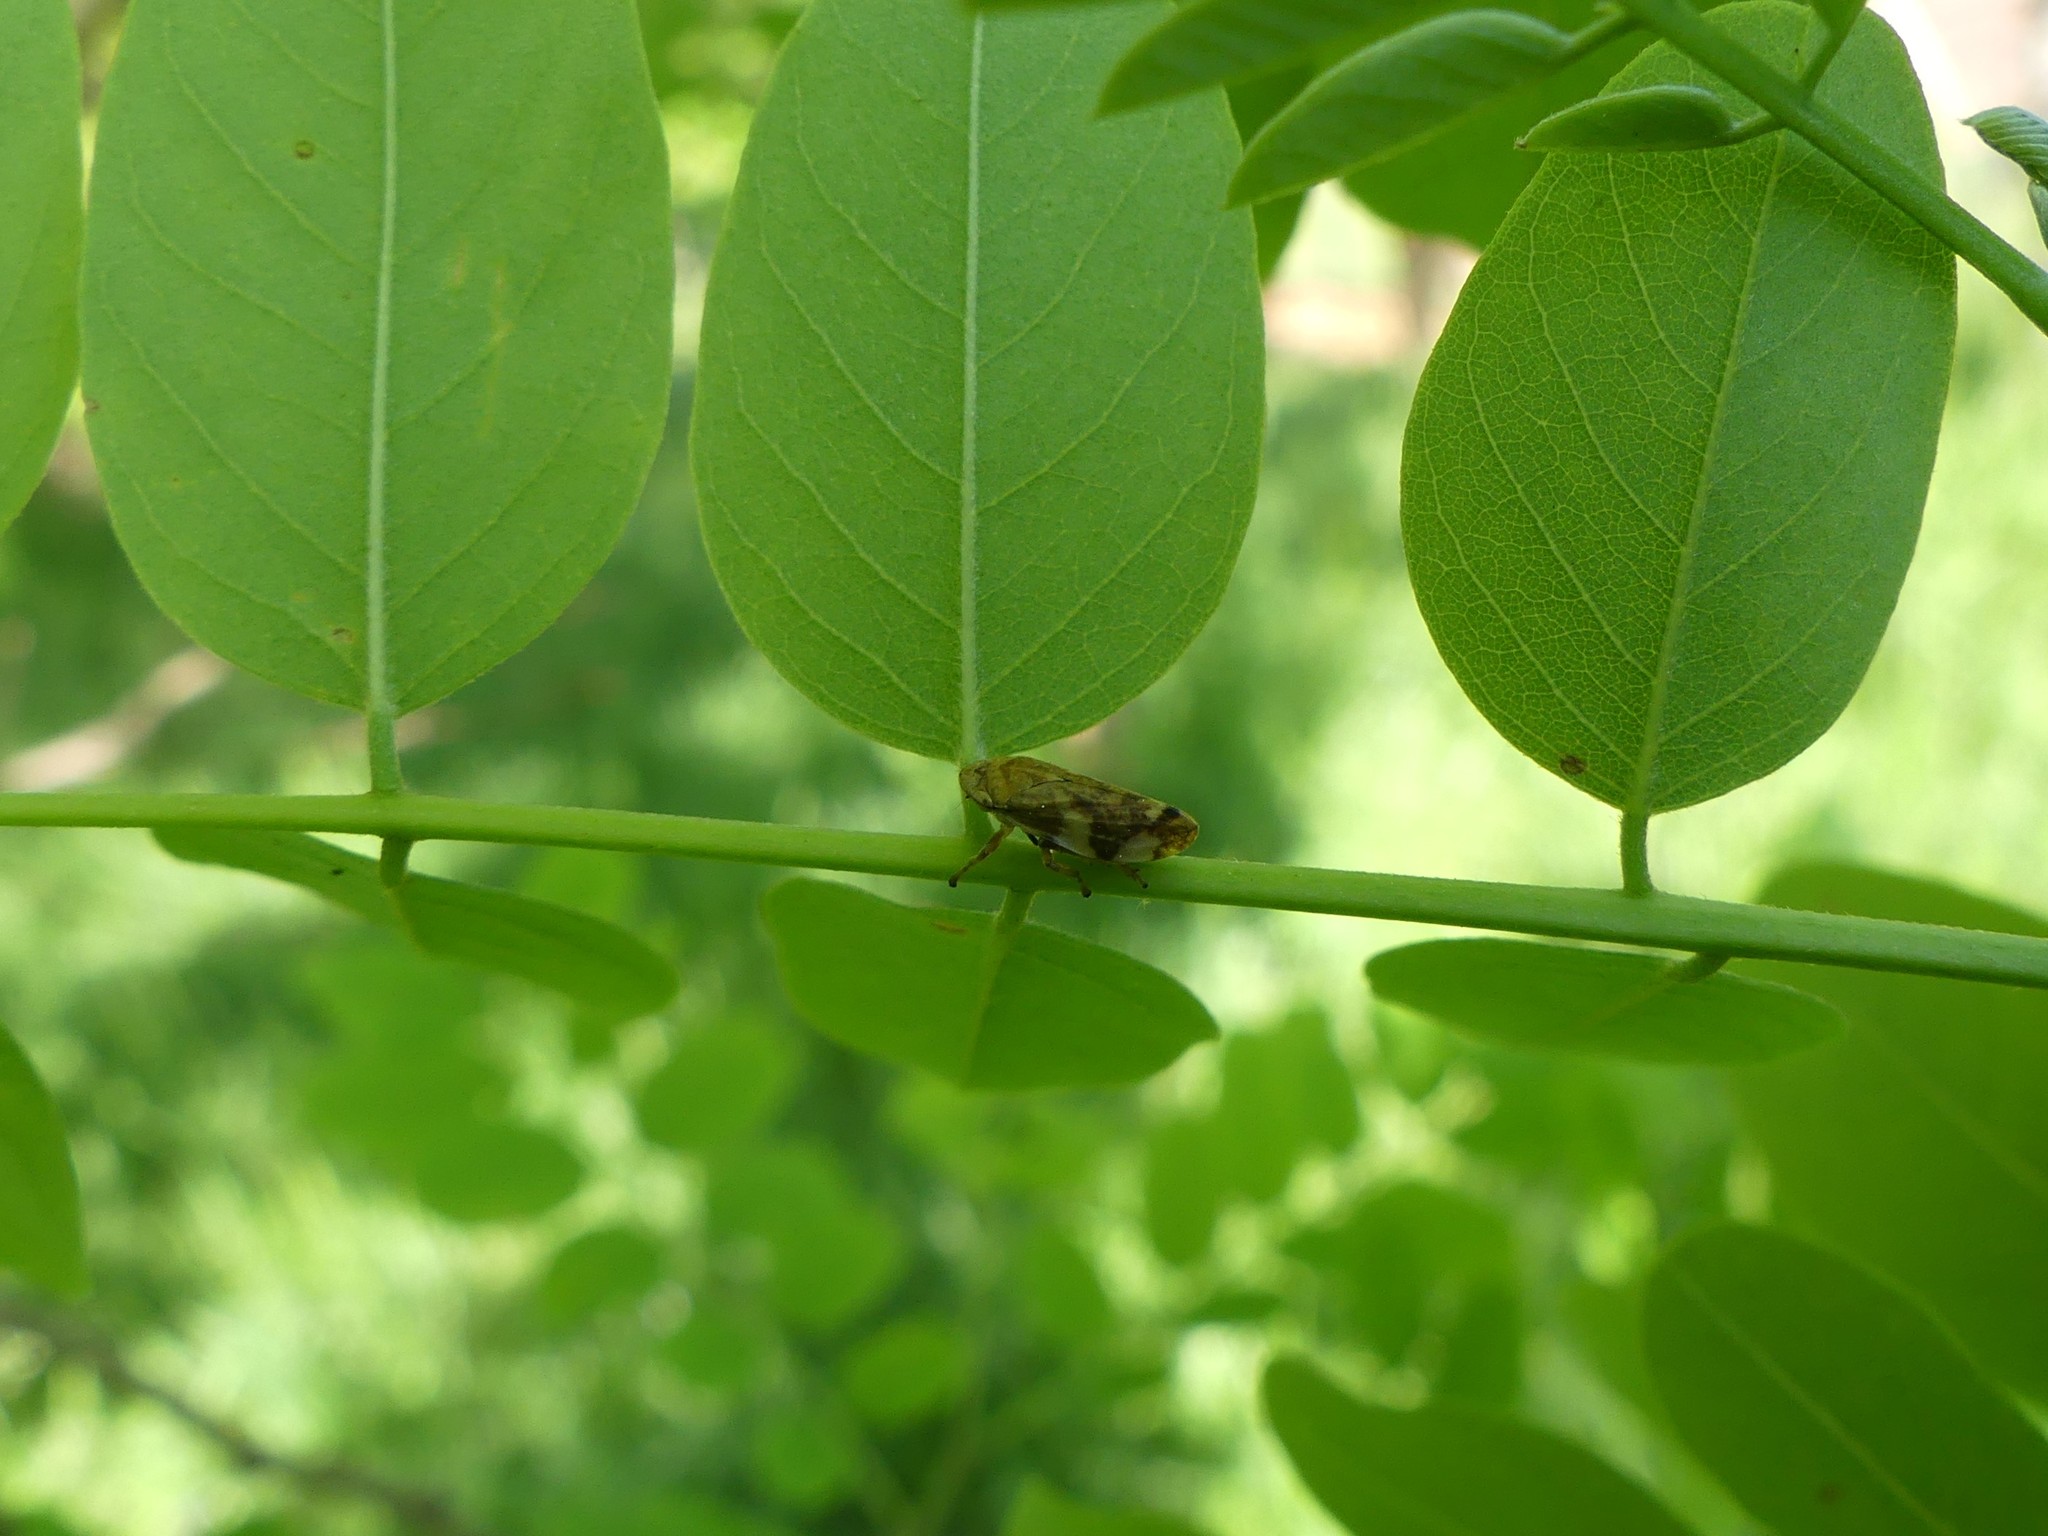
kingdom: Animalia
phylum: Arthropoda
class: Insecta
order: Hemiptera
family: Aphrophoridae
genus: Philaenus
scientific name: Philaenus spumarius
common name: Meadow spittlebug
